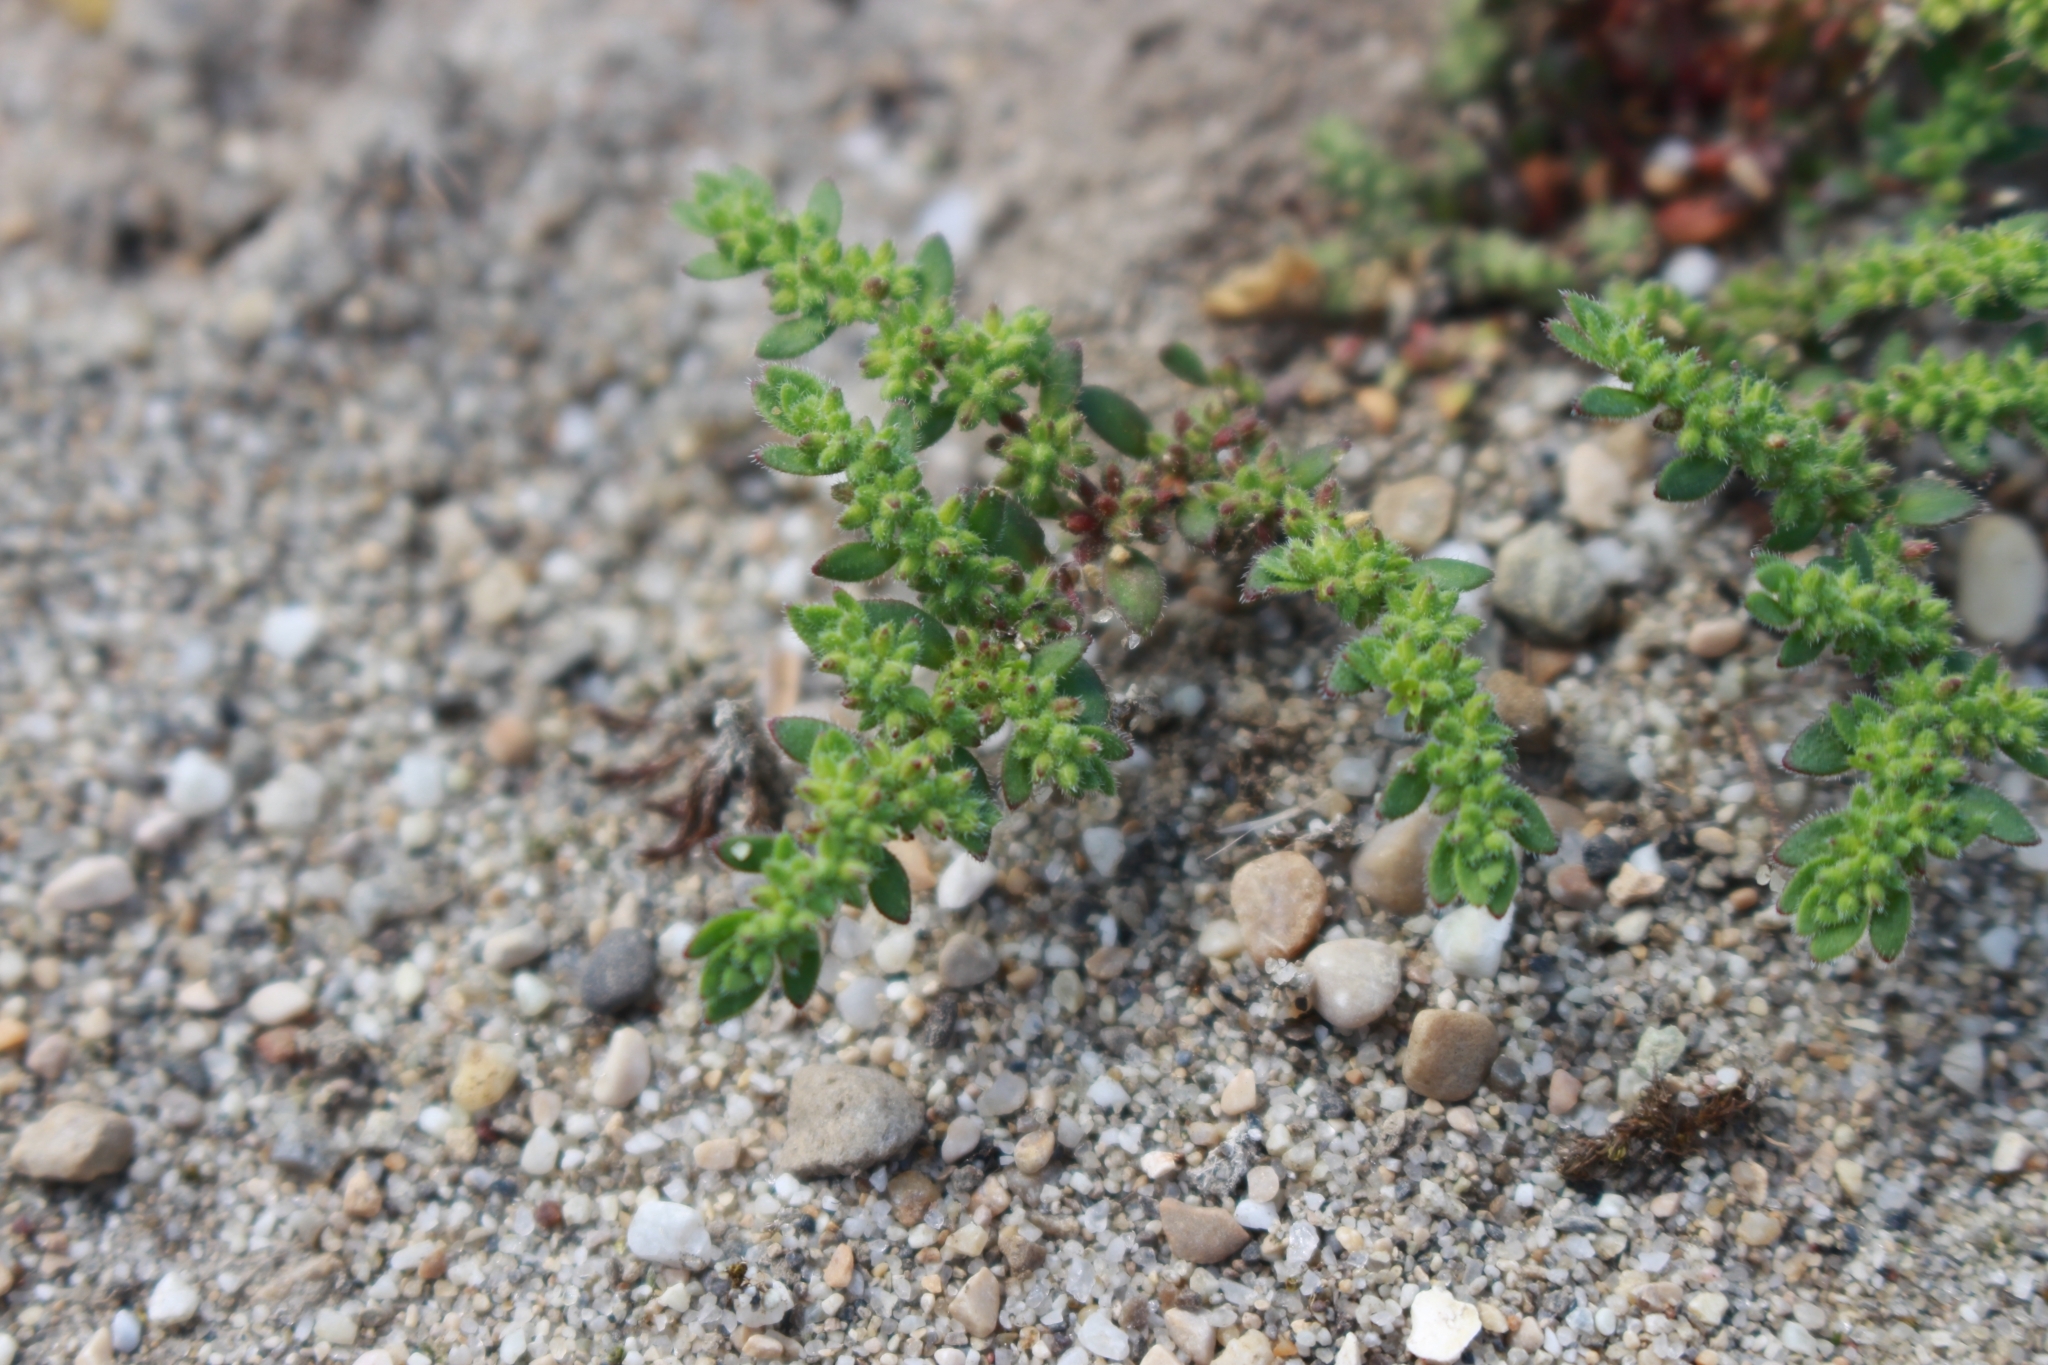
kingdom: Plantae
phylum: Tracheophyta
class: Magnoliopsida
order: Caryophyllales
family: Caryophyllaceae
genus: Herniaria
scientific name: Herniaria hirsuta
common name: Hairy rupturewort
